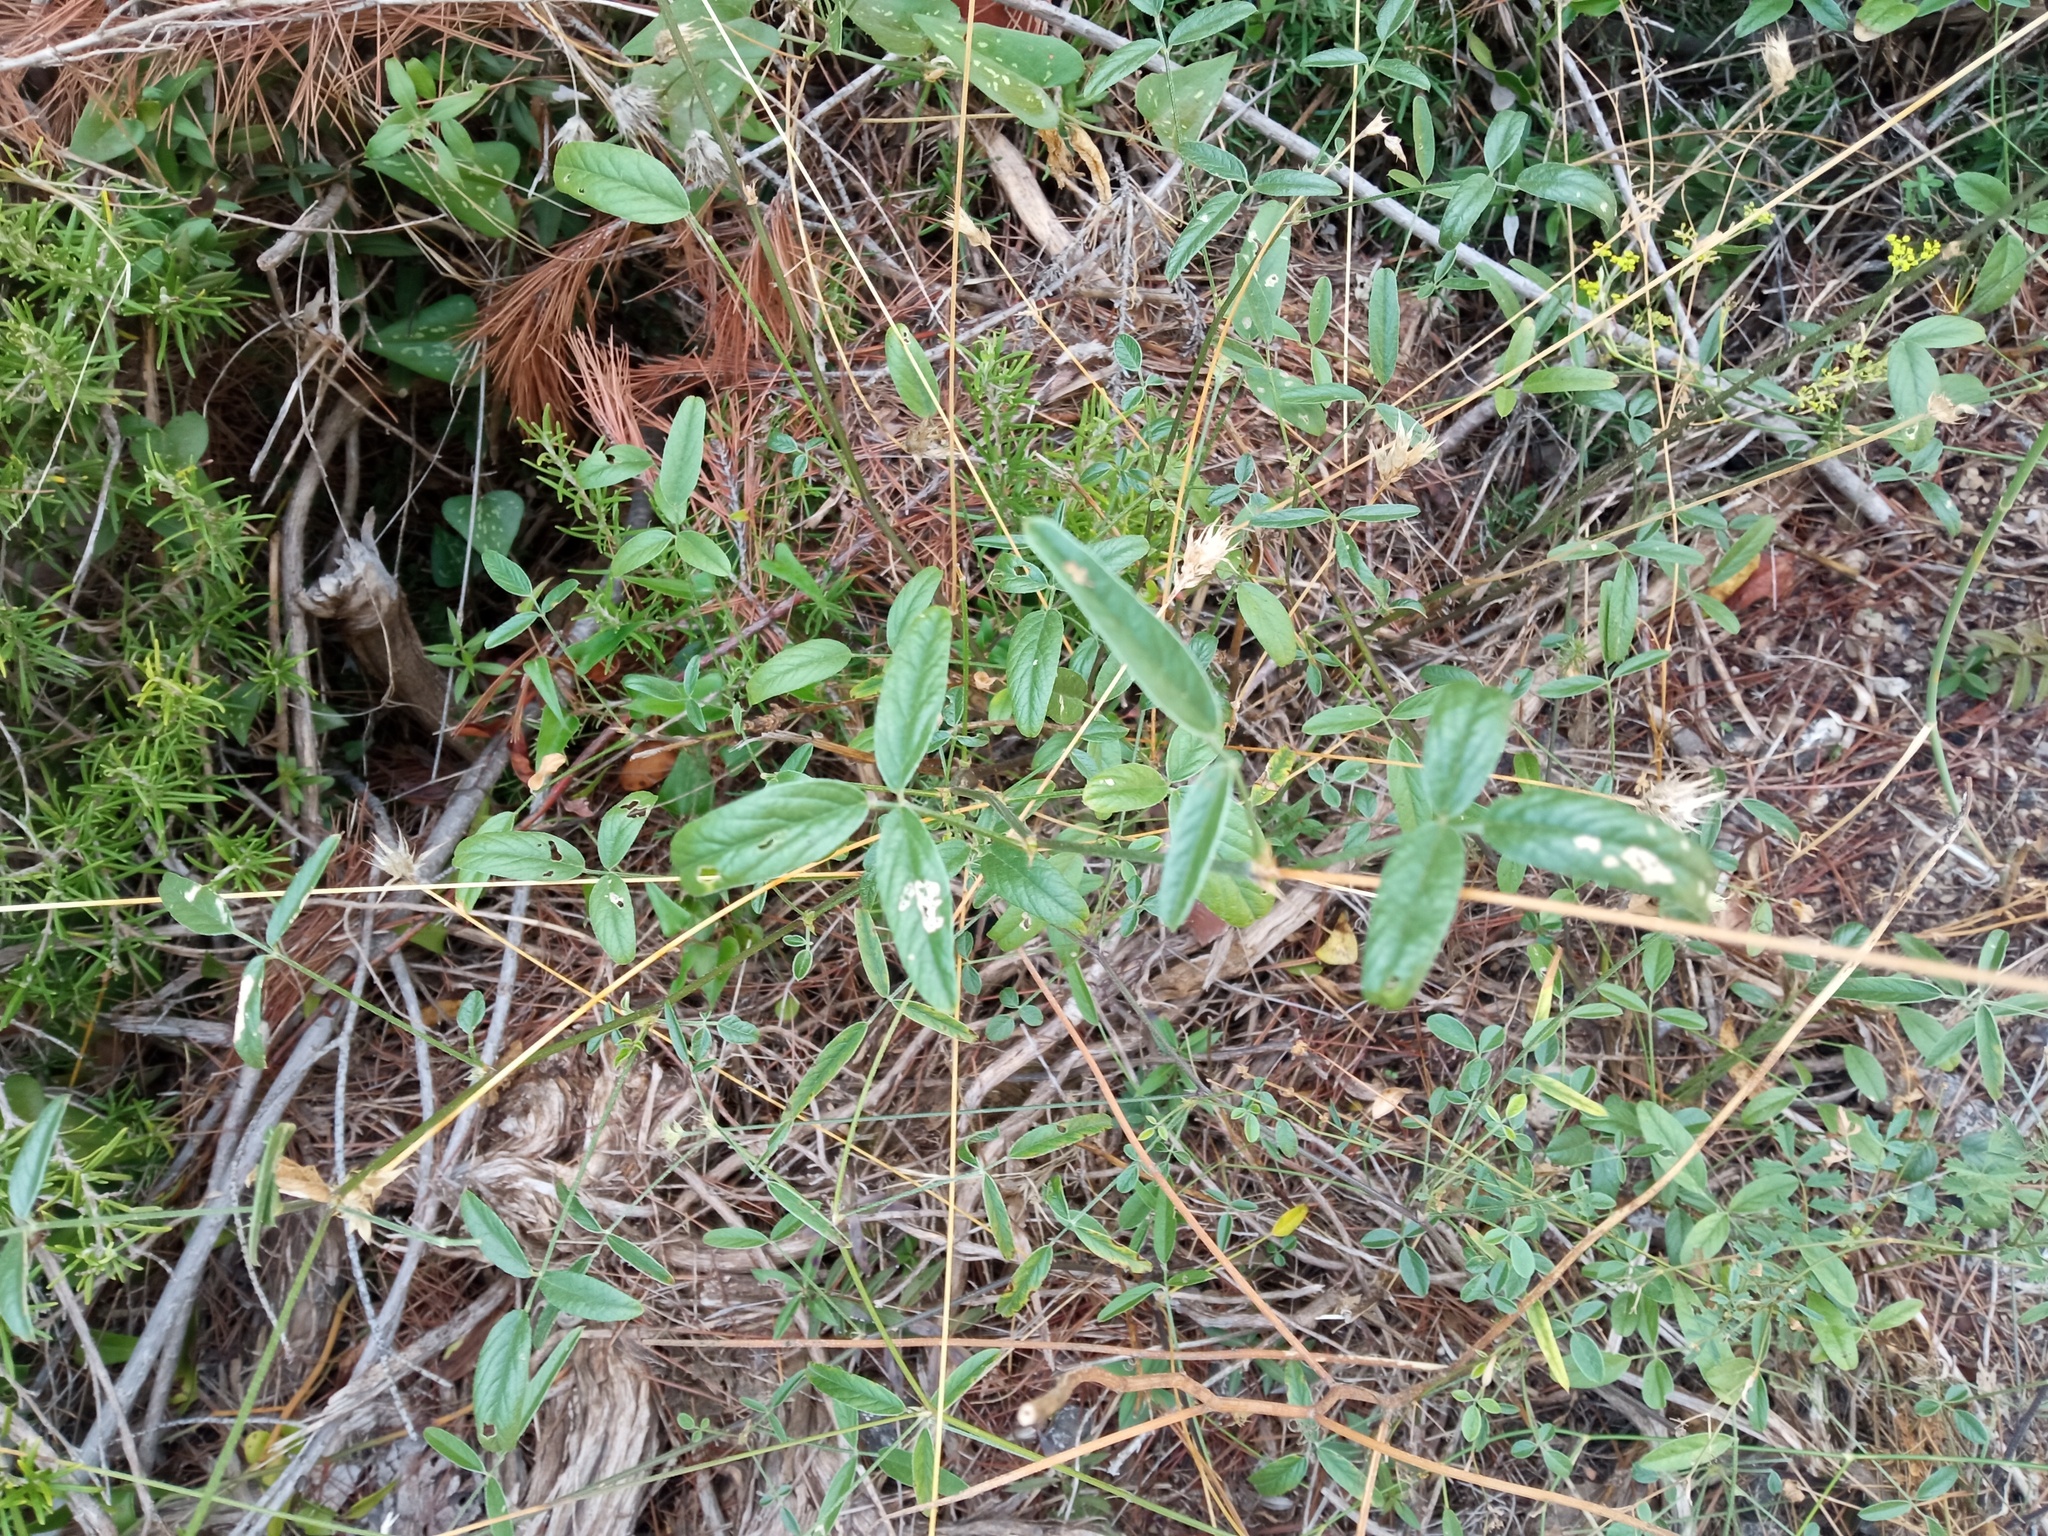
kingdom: Plantae
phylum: Tracheophyta
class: Magnoliopsida
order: Fabales
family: Fabaceae
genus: Bituminaria
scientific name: Bituminaria bituminosa
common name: Arabian pea
